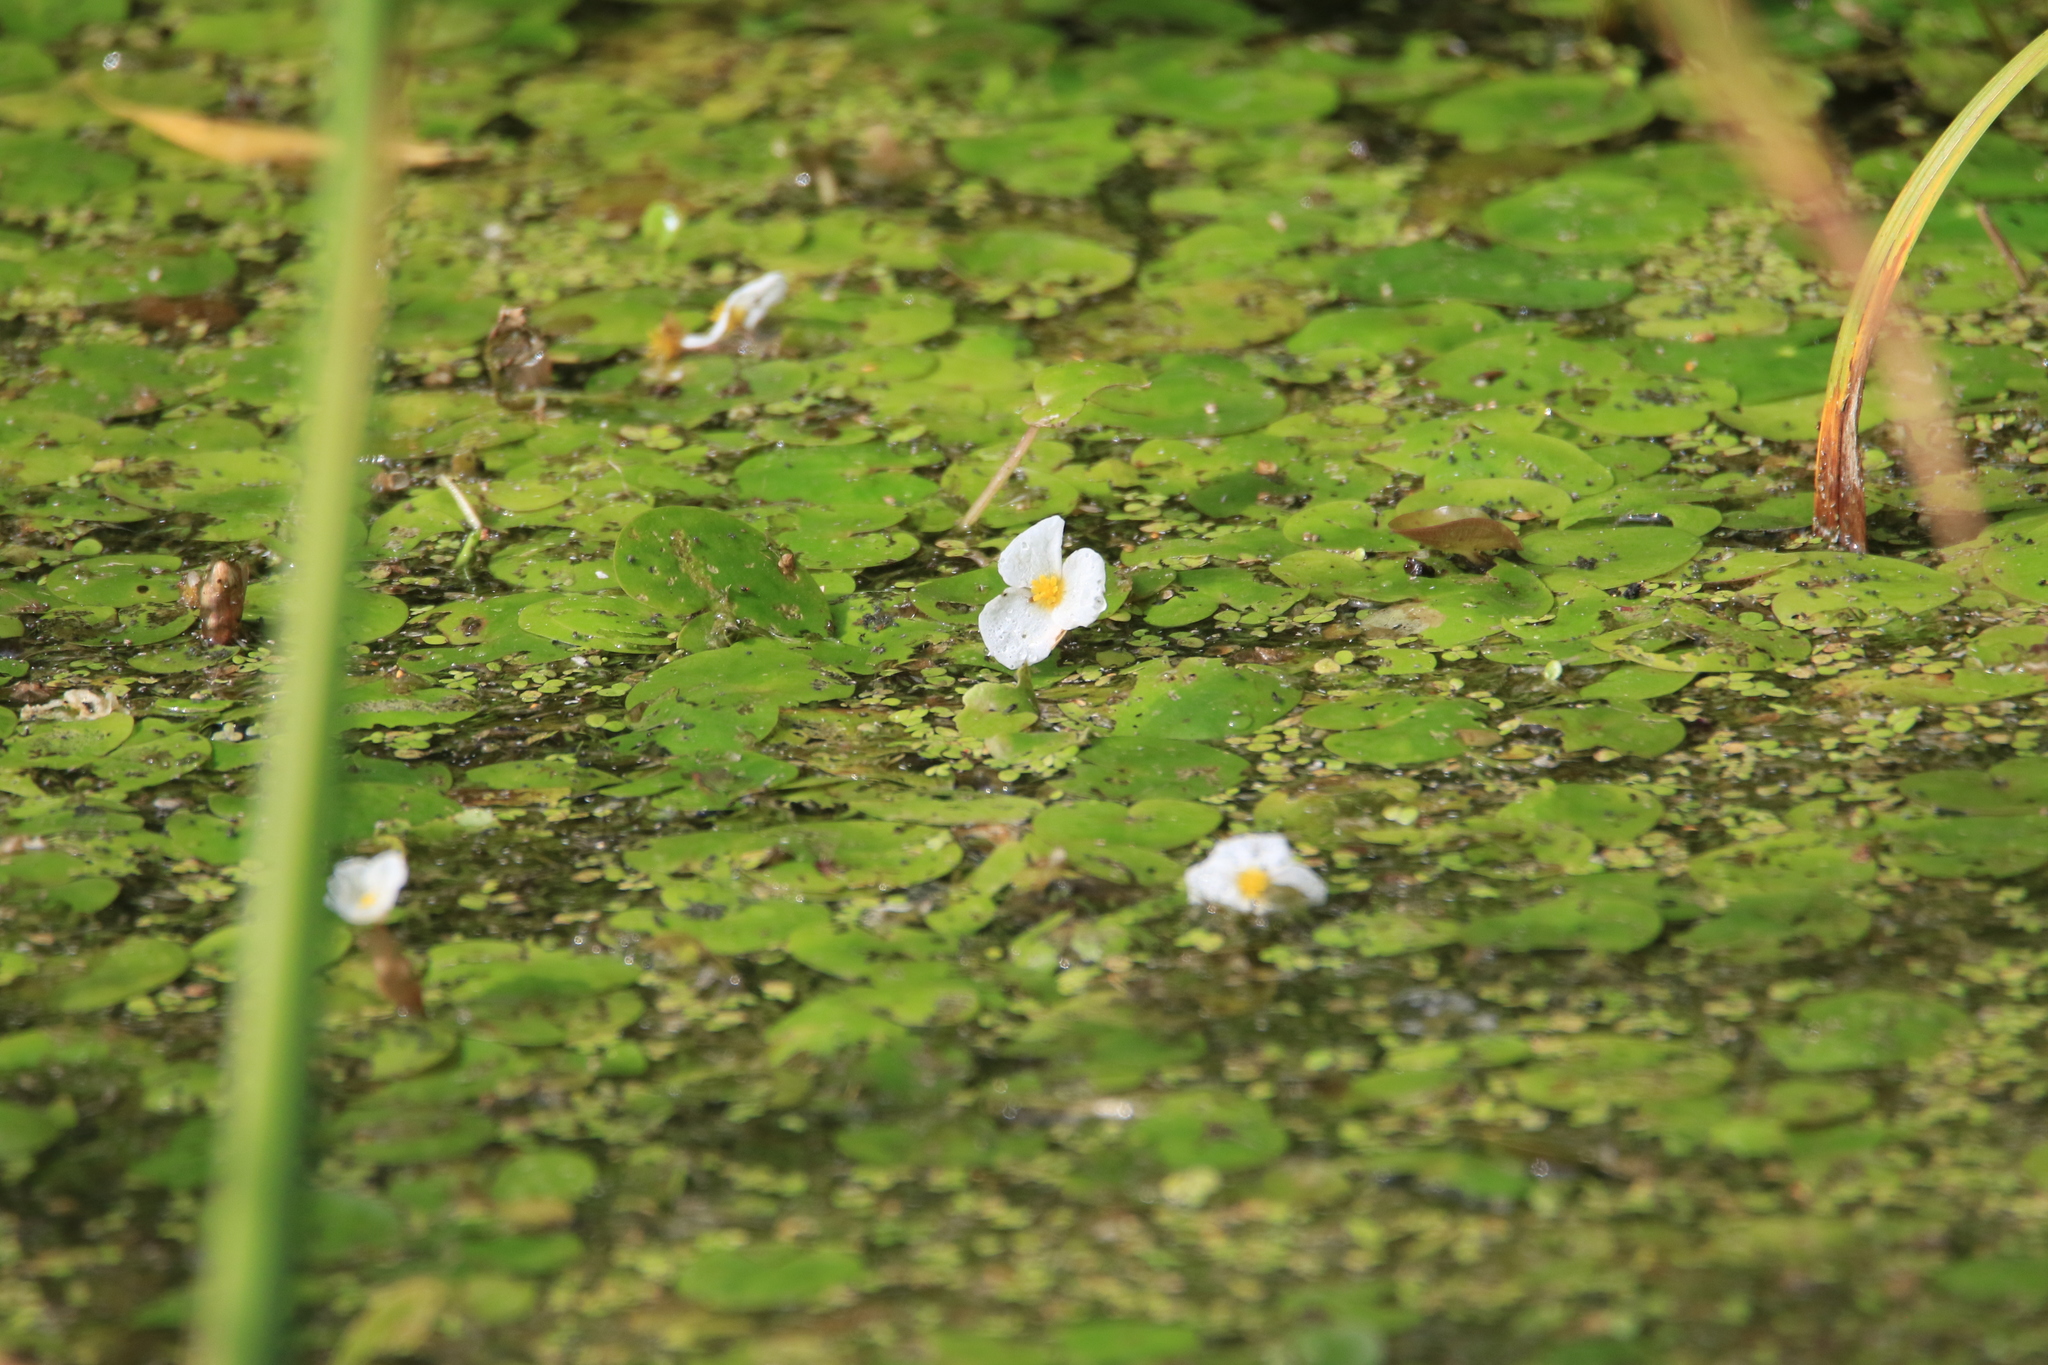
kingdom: Plantae
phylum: Tracheophyta
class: Liliopsida
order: Alismatales
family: Hydrocharitaceae
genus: Hydrocharis
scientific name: Hydrocharis morsus-ranae
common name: Frogbit
